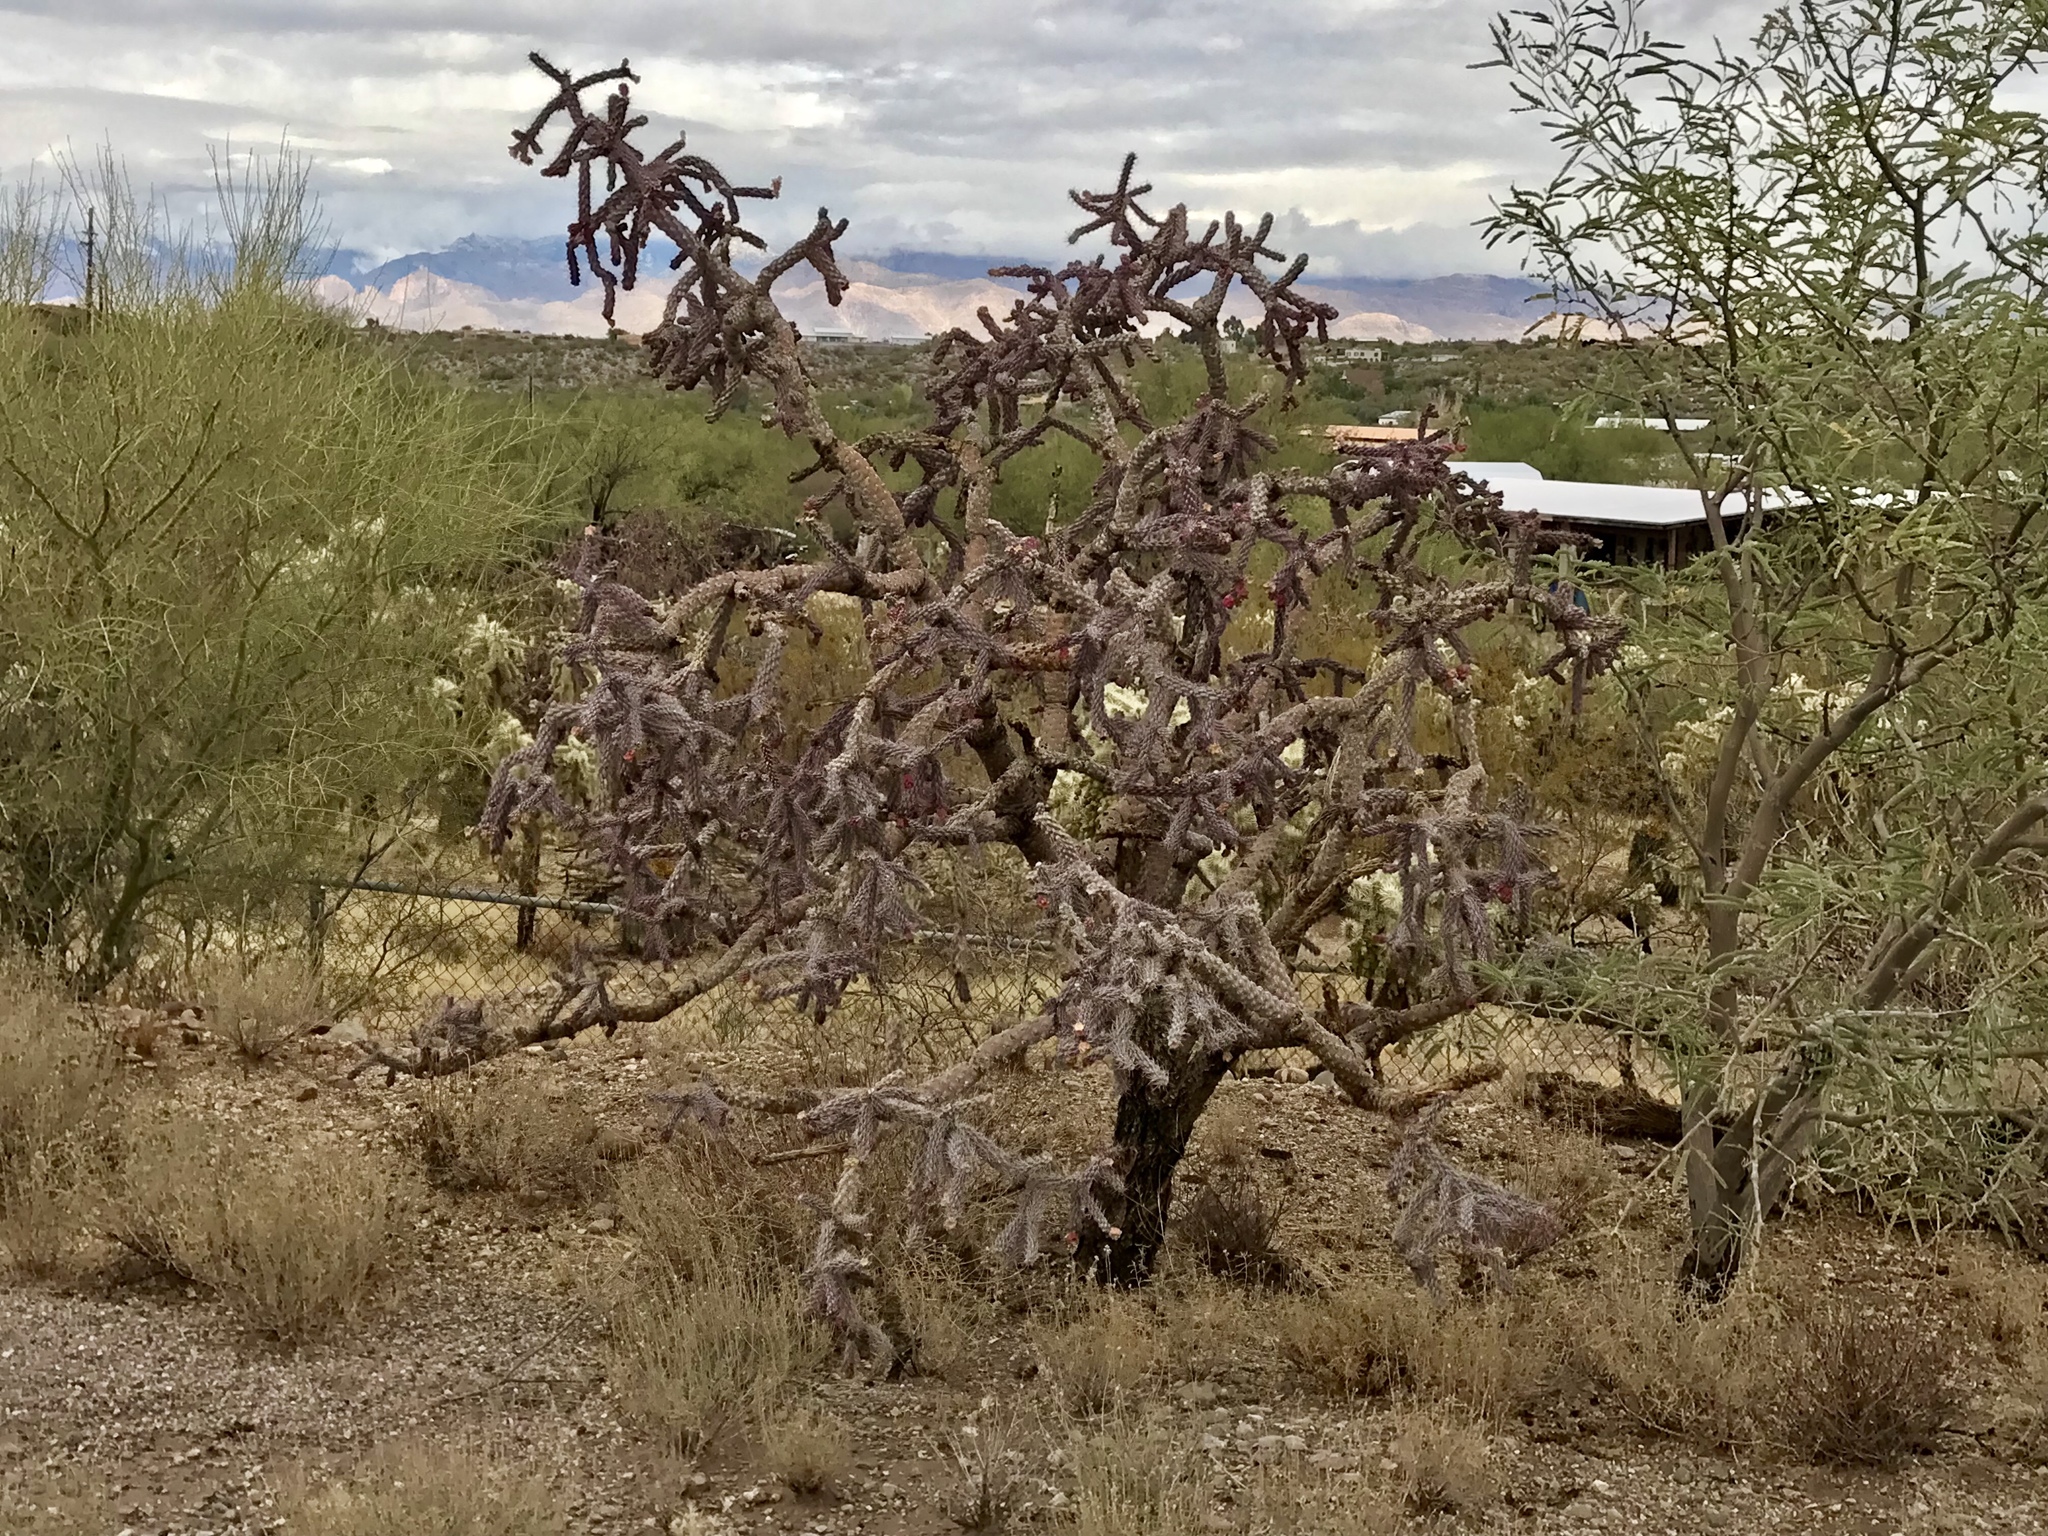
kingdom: Plantae
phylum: Tracheophyta
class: Magnoliopsida
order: Caryophyllales
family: Cactaceae
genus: Cylindropuntia
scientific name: Cylindropuntia thurberi
